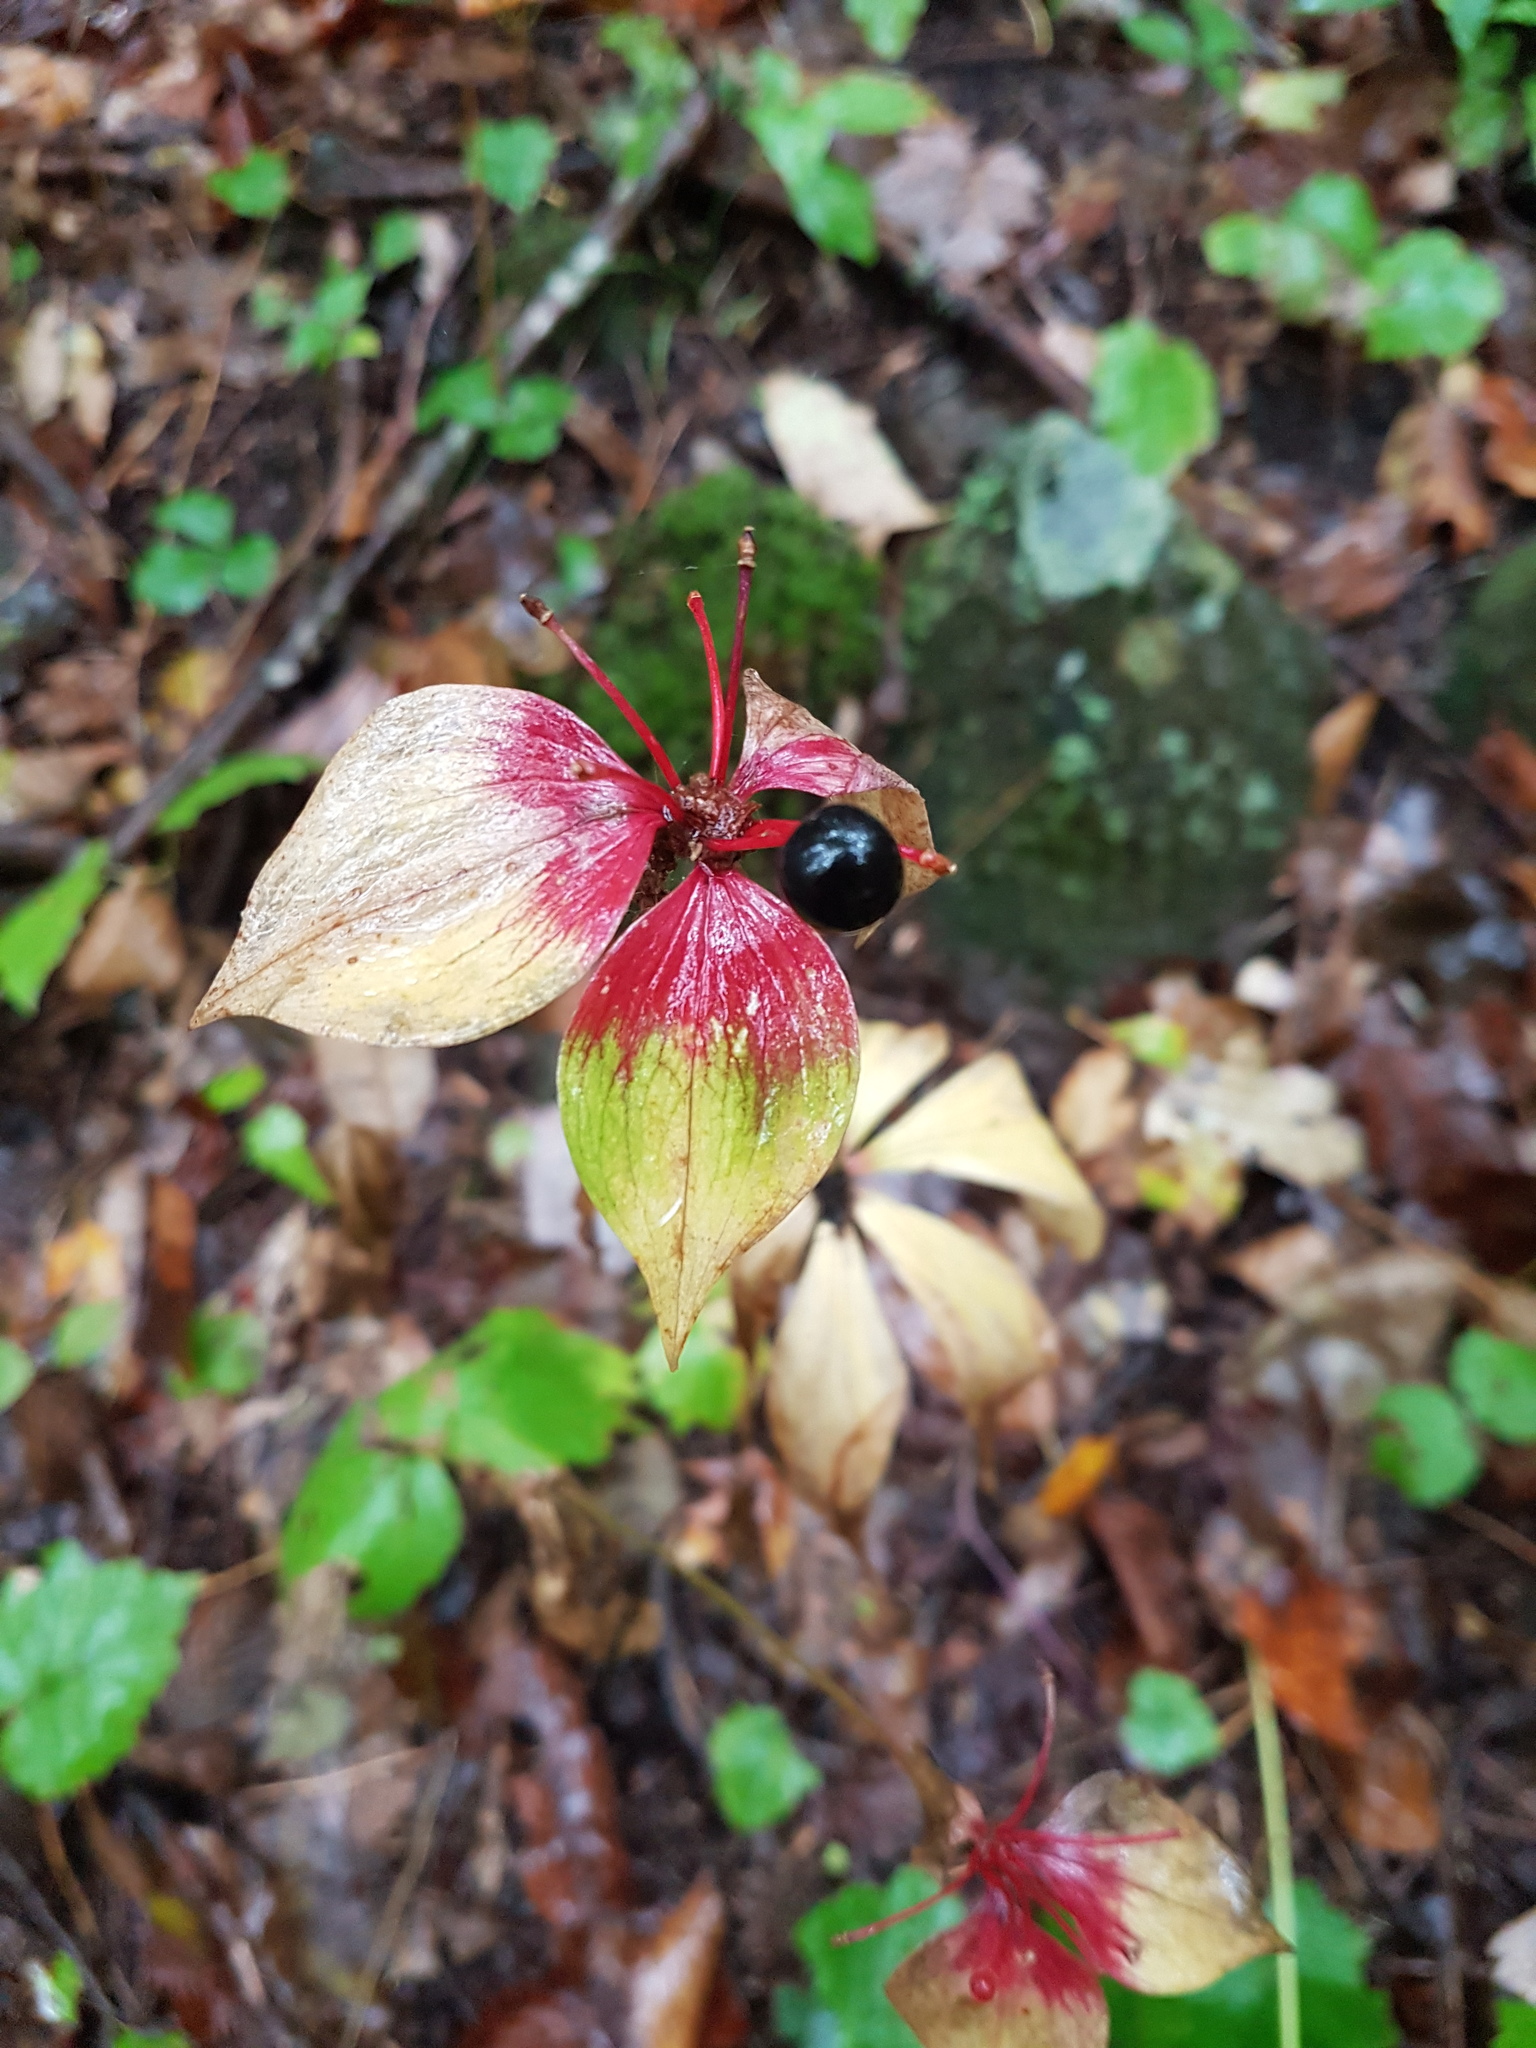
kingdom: Plantae
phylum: Tracheophyta
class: Liliopsida
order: Liliales
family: Liliaceae
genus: Medeola
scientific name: Medeola virginiana
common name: Indian cucumber-root
